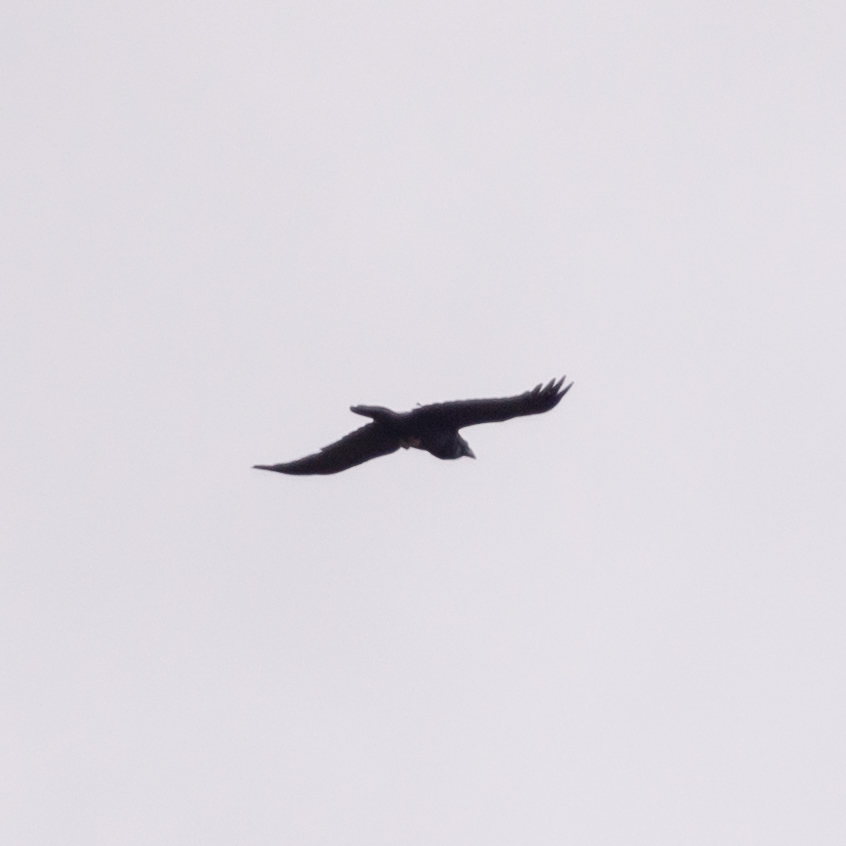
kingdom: Animalia
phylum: Chordata
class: Aves
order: Passeriformes
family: Corvidae
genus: Corvus
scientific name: Corvus corax
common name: Common raven
